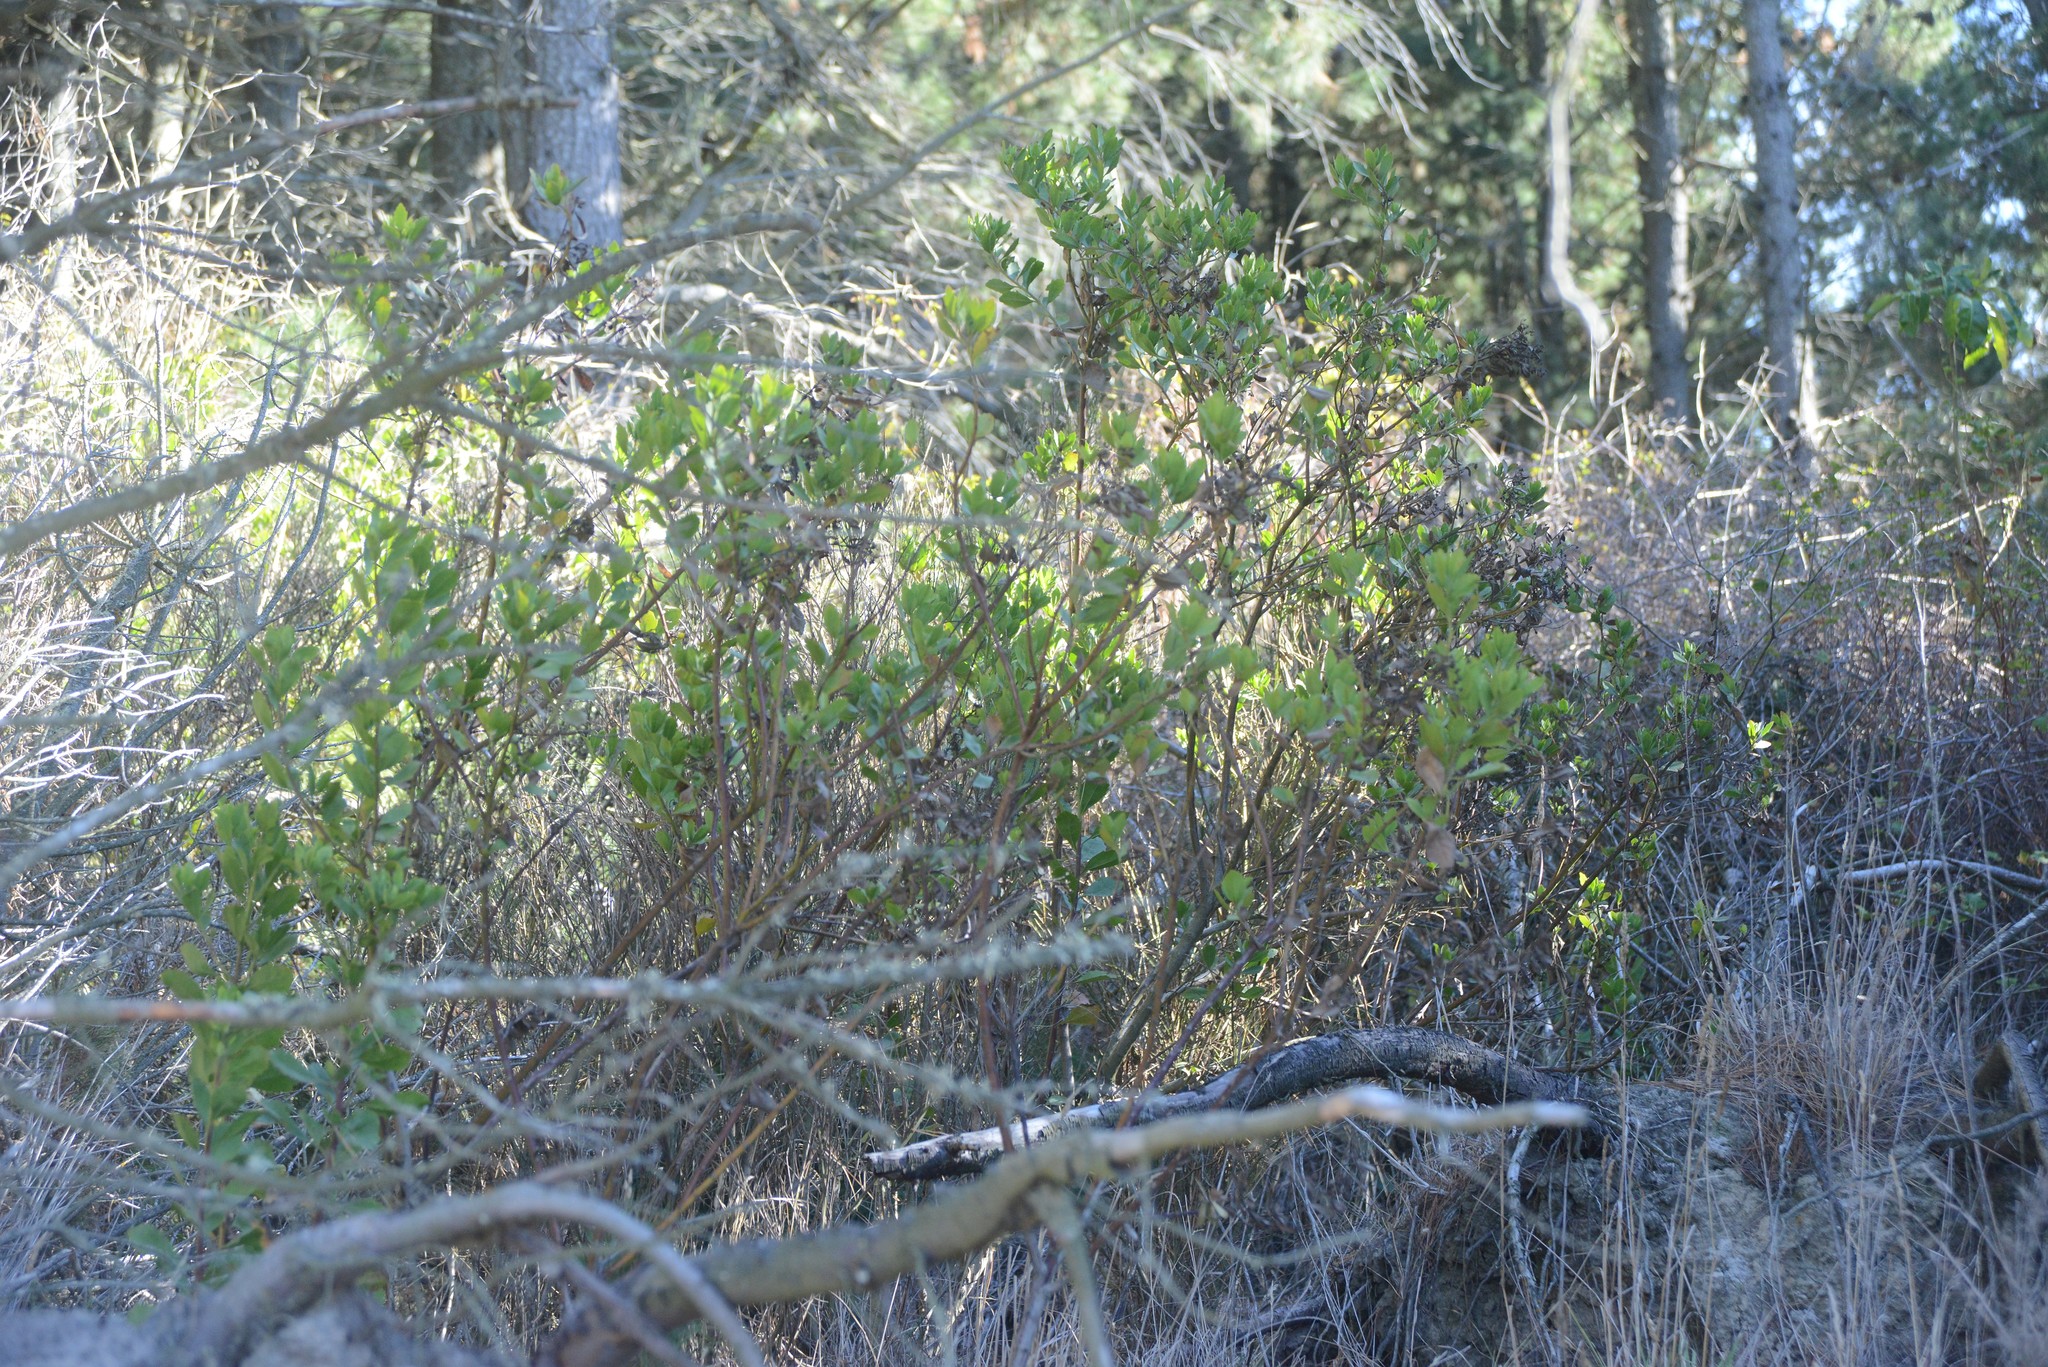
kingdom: Plantae
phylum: Tracheophyta
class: Magnoliopsida
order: Asterales
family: Asteraceae
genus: Osteospermum
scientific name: Osteospermum moniliferum
